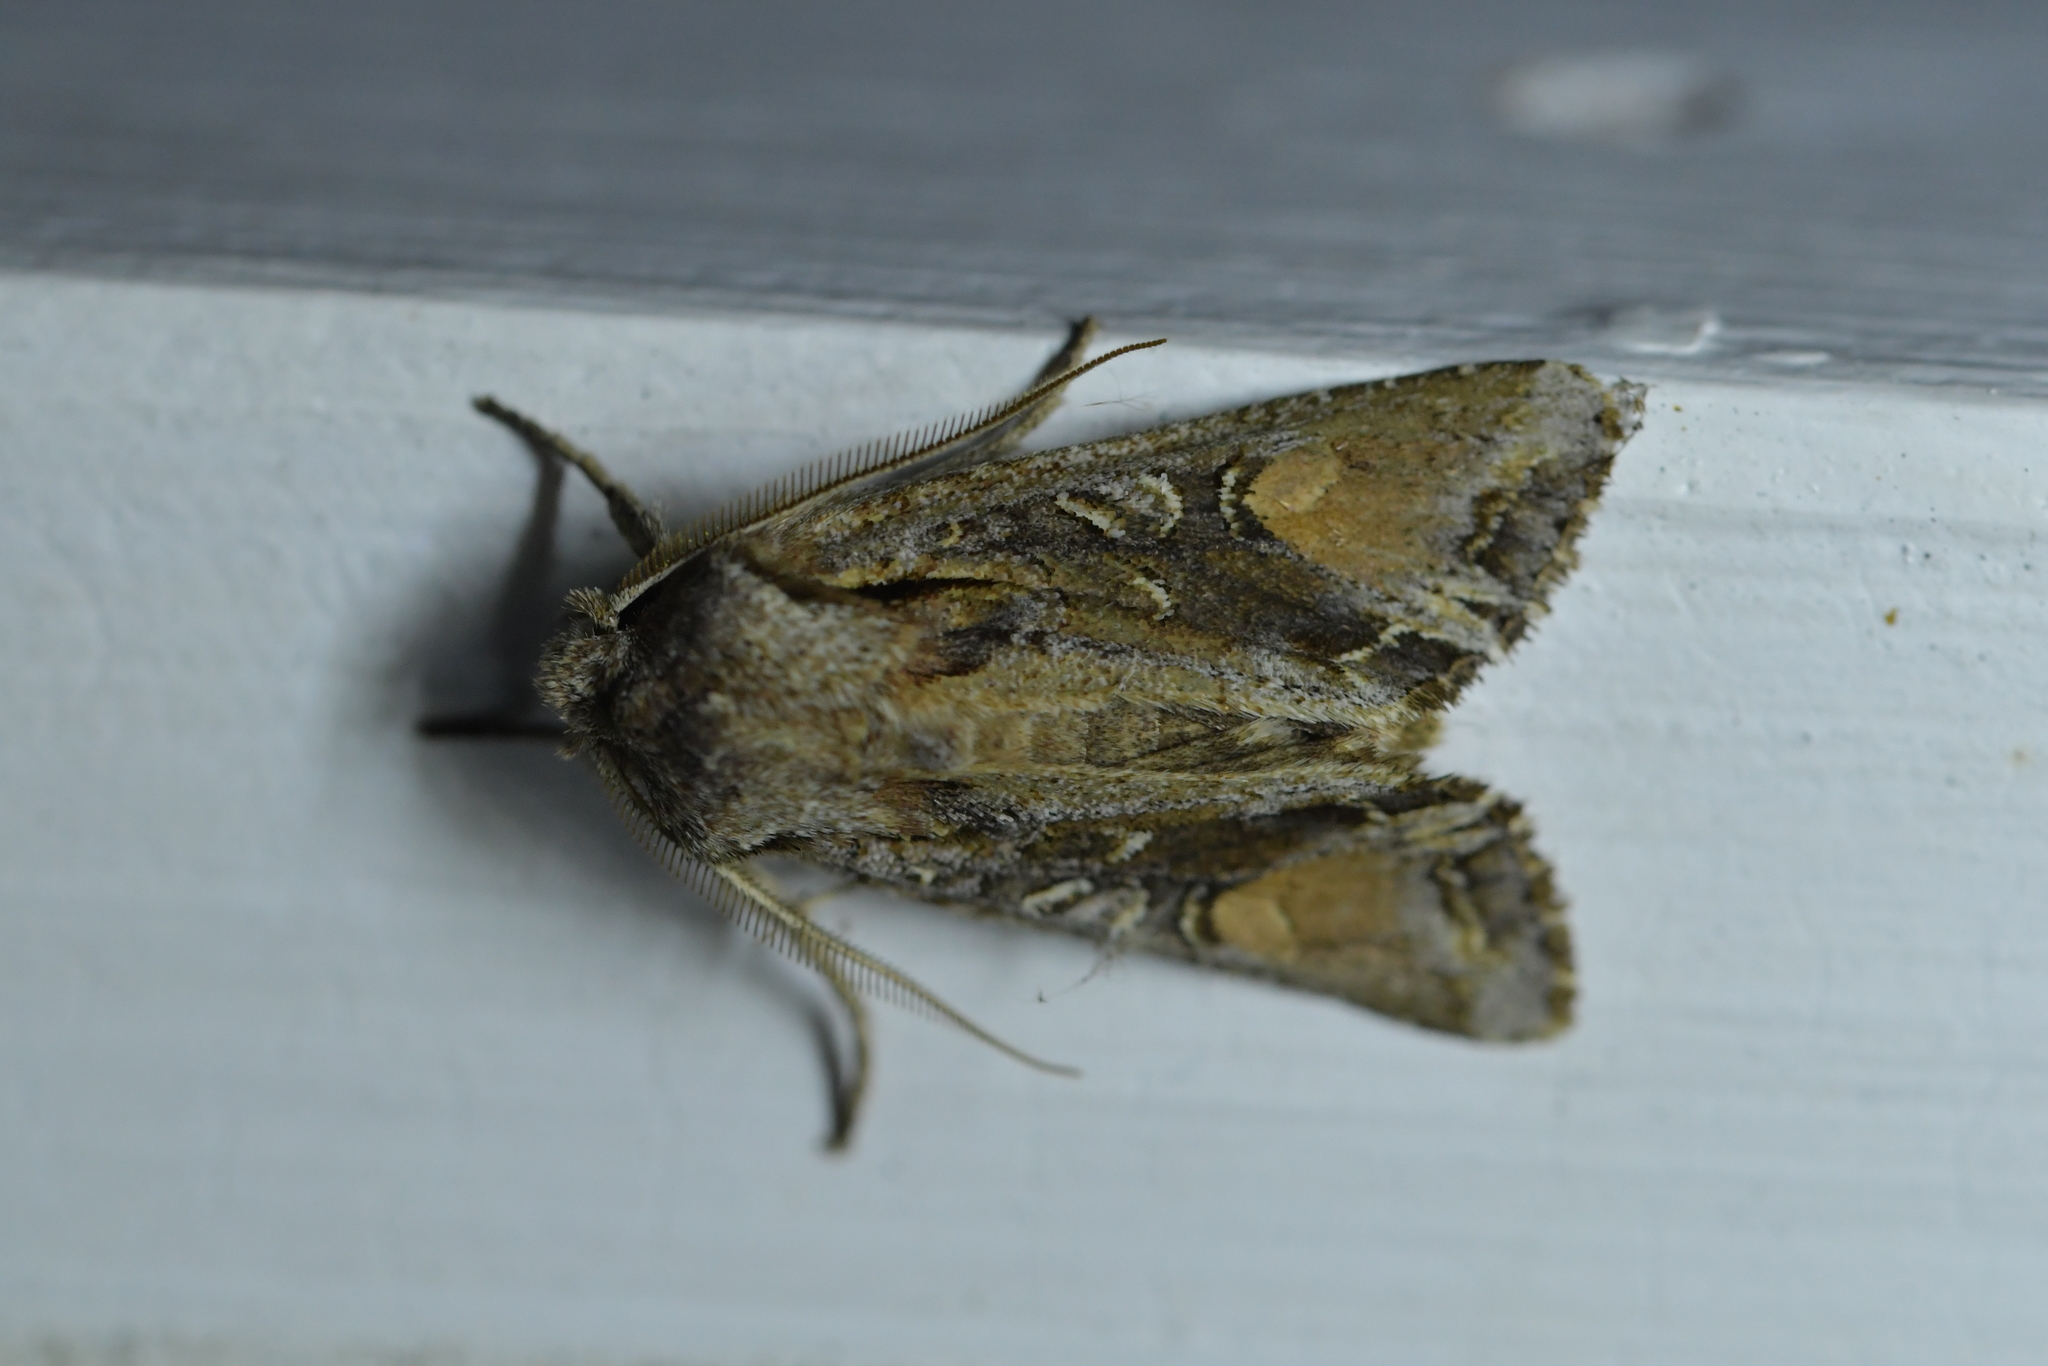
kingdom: Animalia
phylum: Arthropoda
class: Insecta
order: Lepidoptera
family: Noctuidae
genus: Ichneutica
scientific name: Ichneutica
